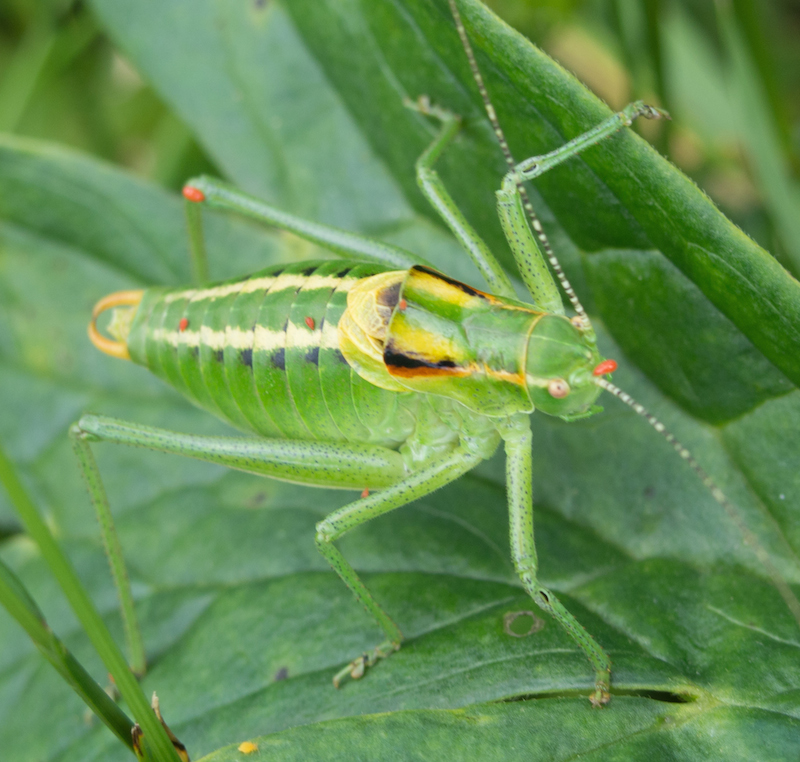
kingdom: Animalia
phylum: Arthropoda
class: Insecta
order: Orthoptera
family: Tettigoniidae
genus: Poecilimon
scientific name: Poecilimon ornatus
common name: Ornate bright bush-cricket
